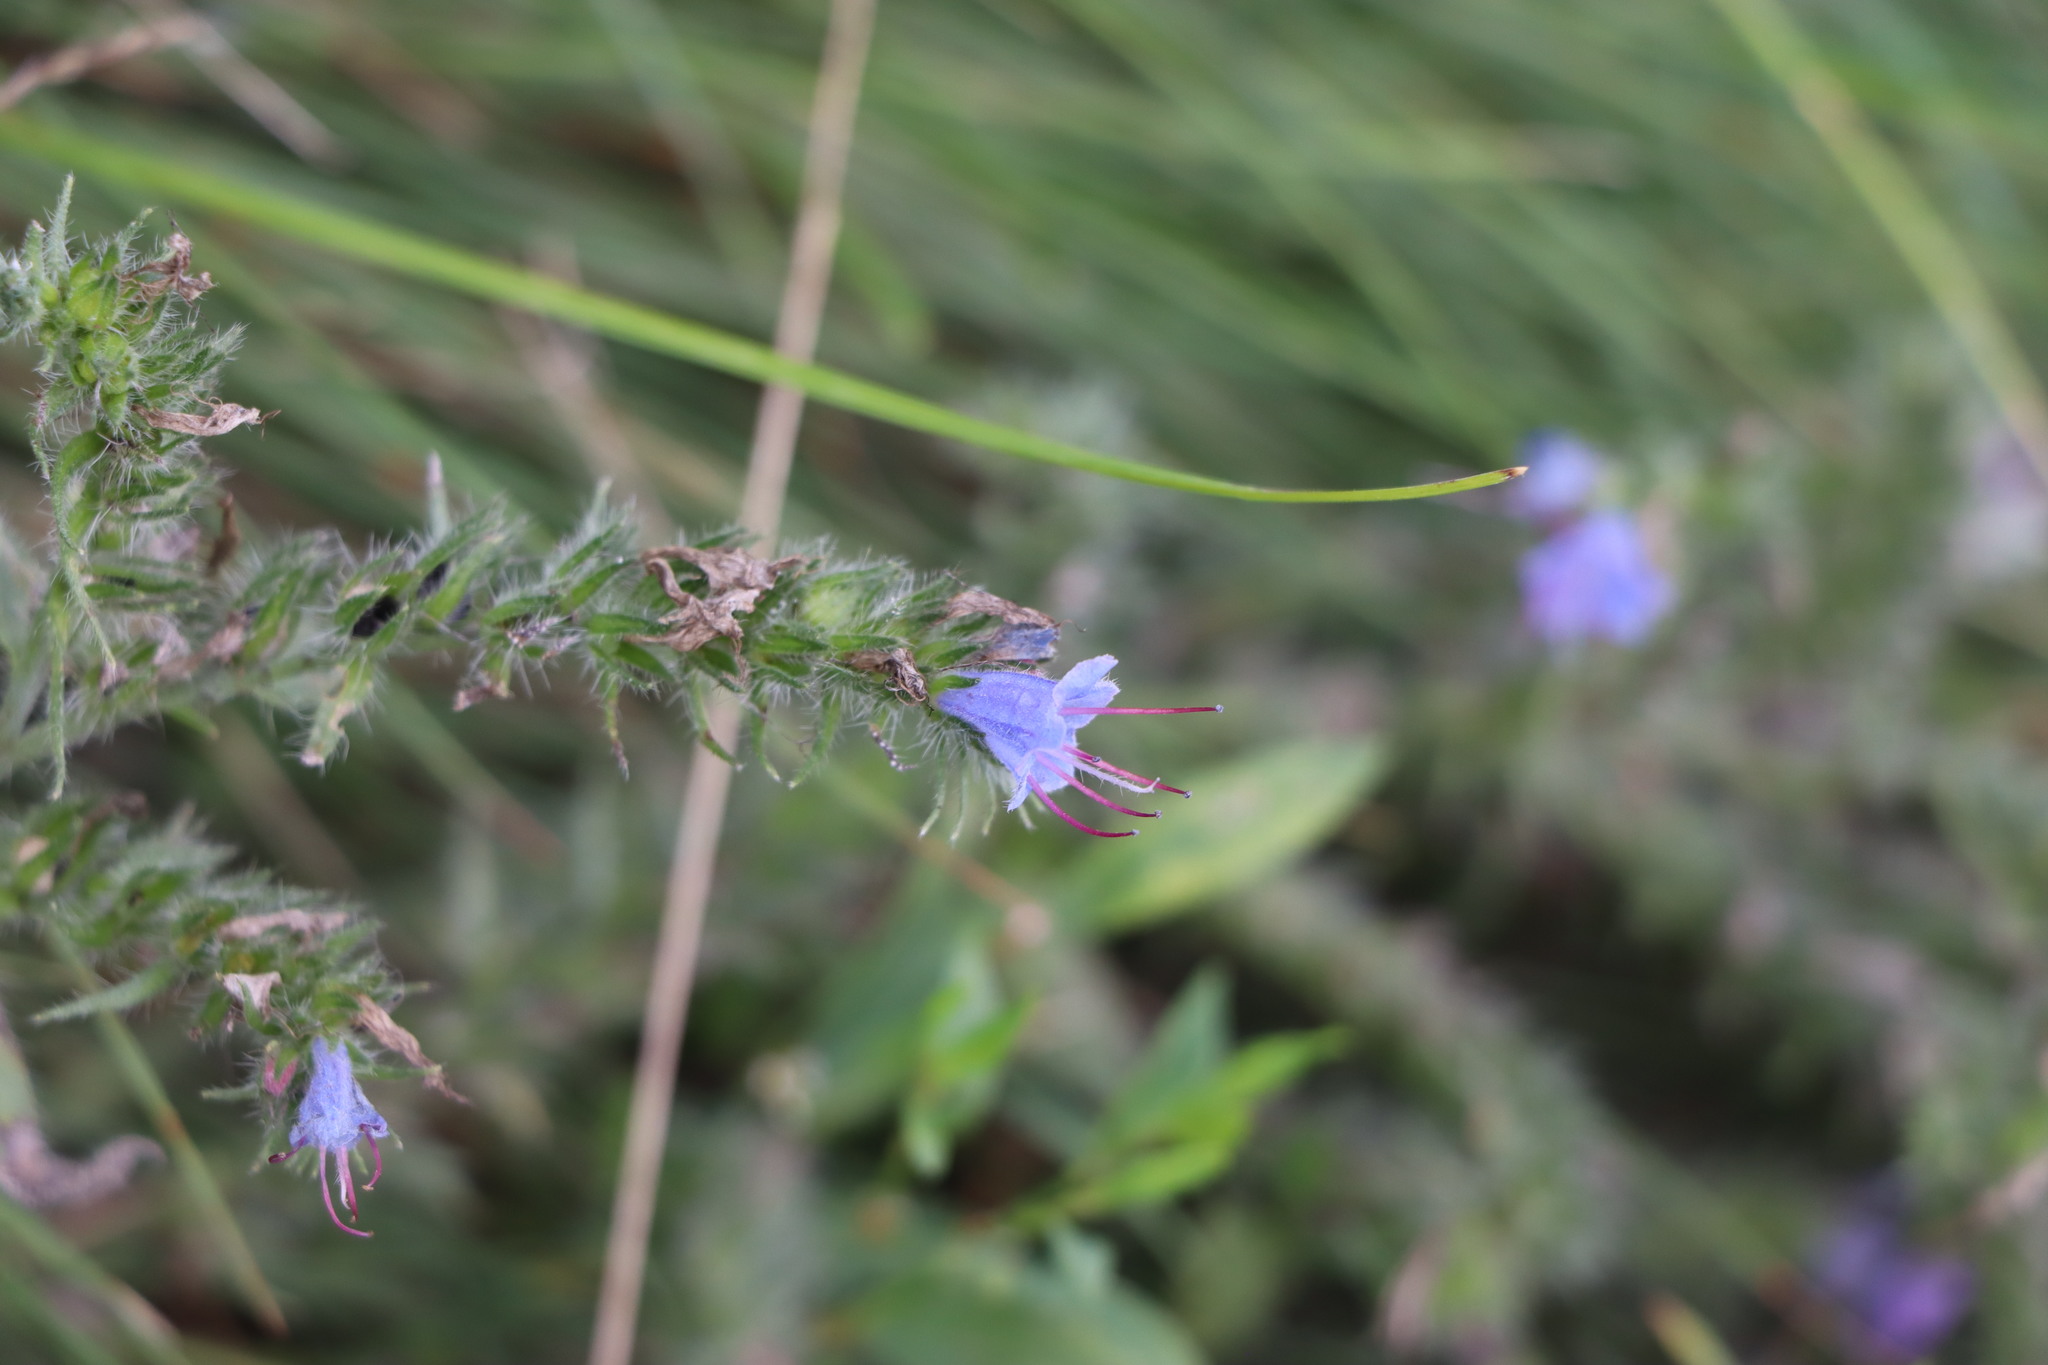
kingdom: Plantae
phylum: Tracheophyta
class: Magnoliopsida
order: Boraginales
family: Boraginaceae
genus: Echium
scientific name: Echium vulgare
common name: Common viper's bugloss
